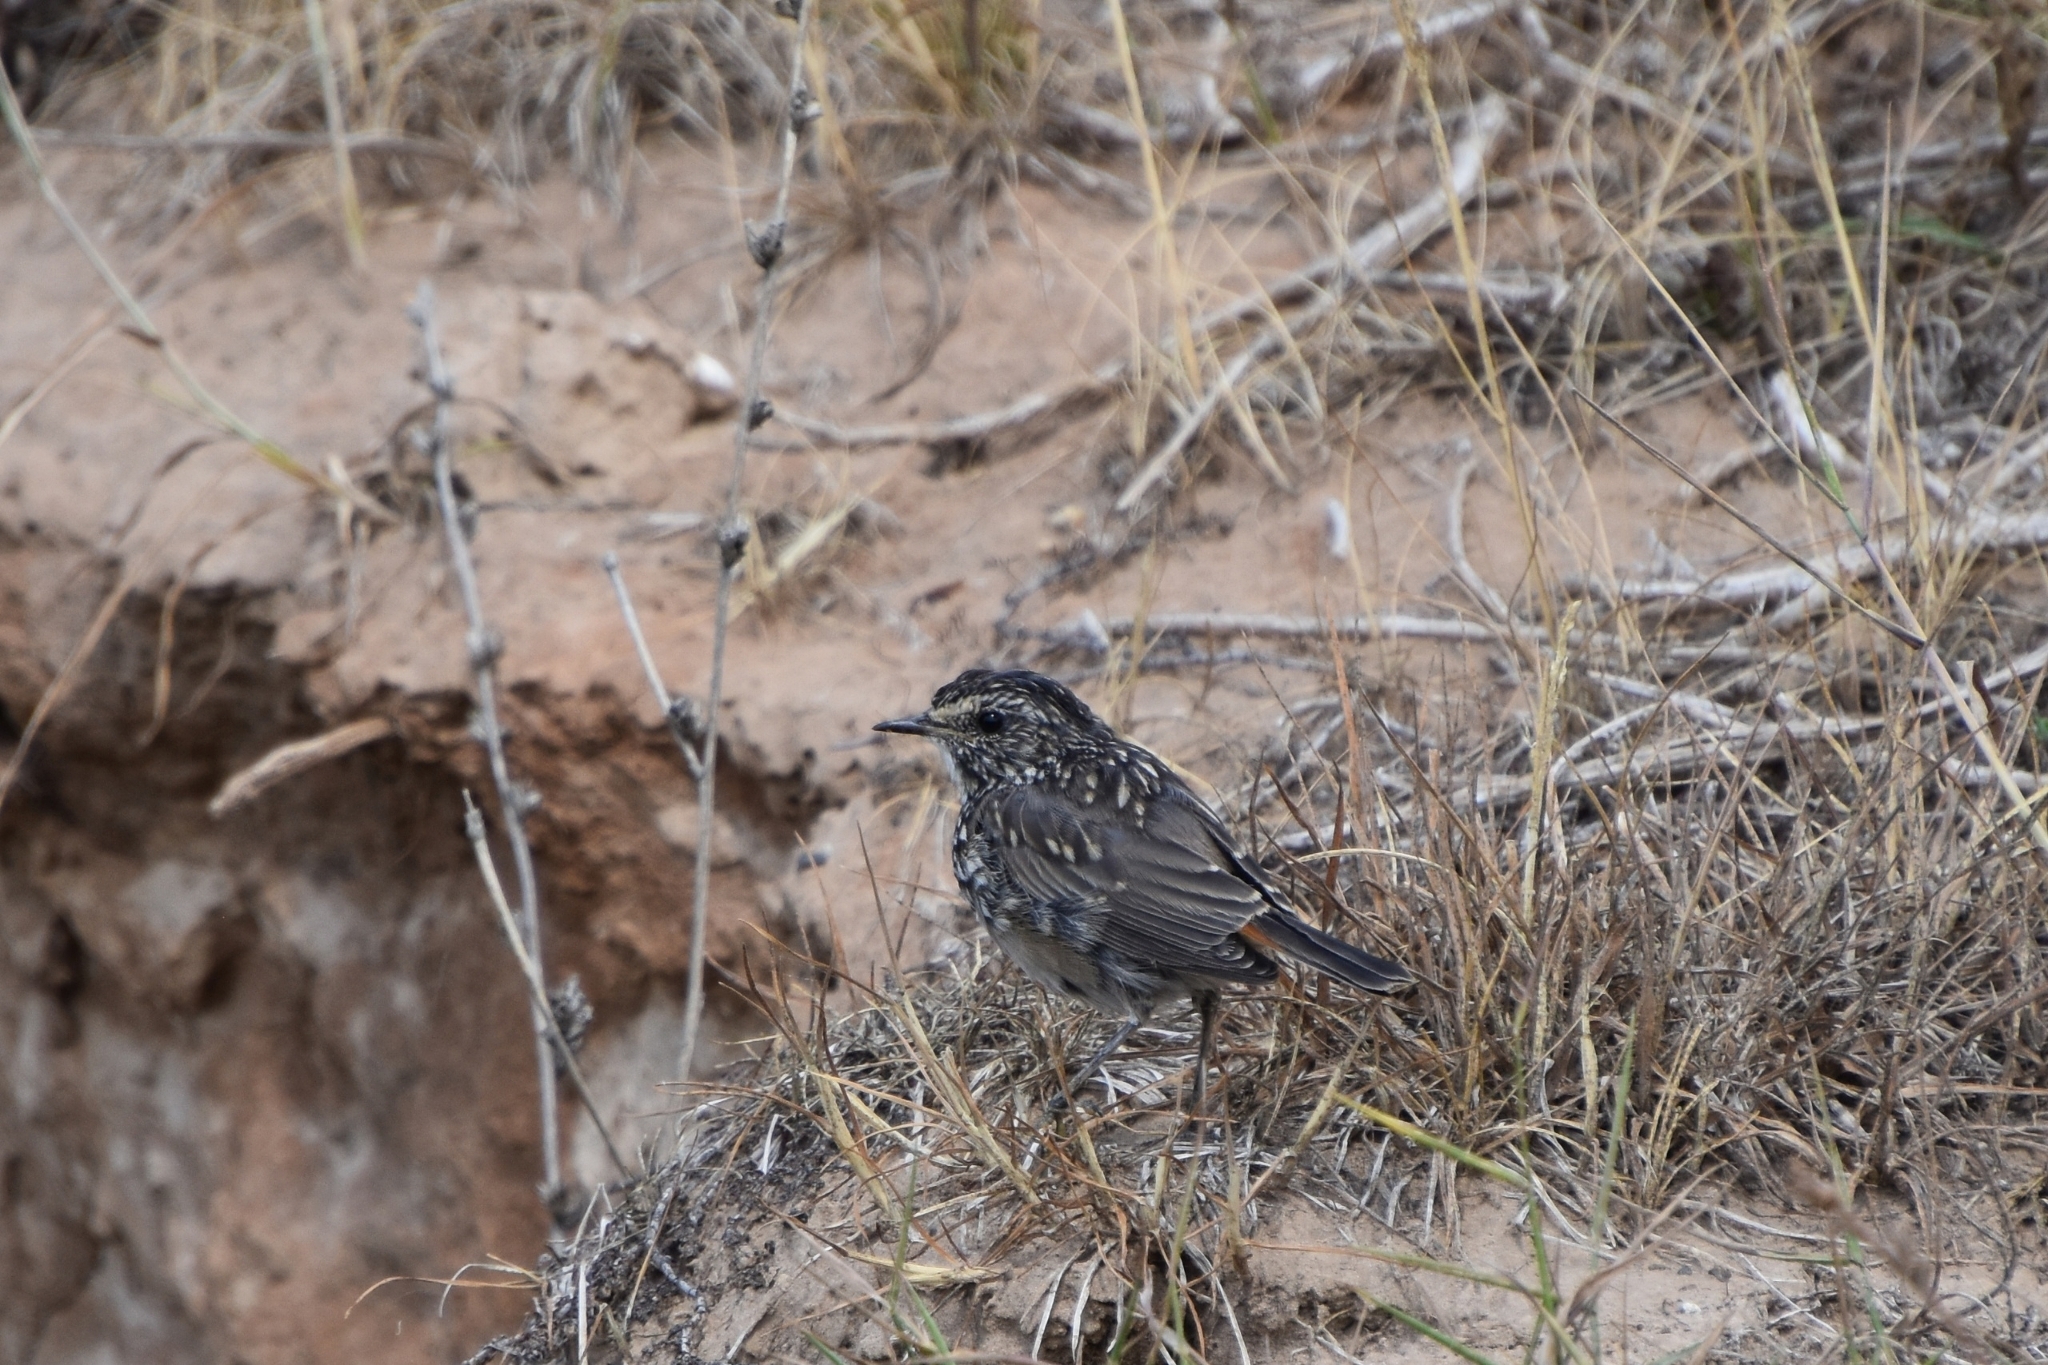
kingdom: Animalia
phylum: Chordata
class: Aves
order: Passeriformes
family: Muscicapidae
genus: Luscinia
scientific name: Luscinia svecica
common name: Bluethroat
